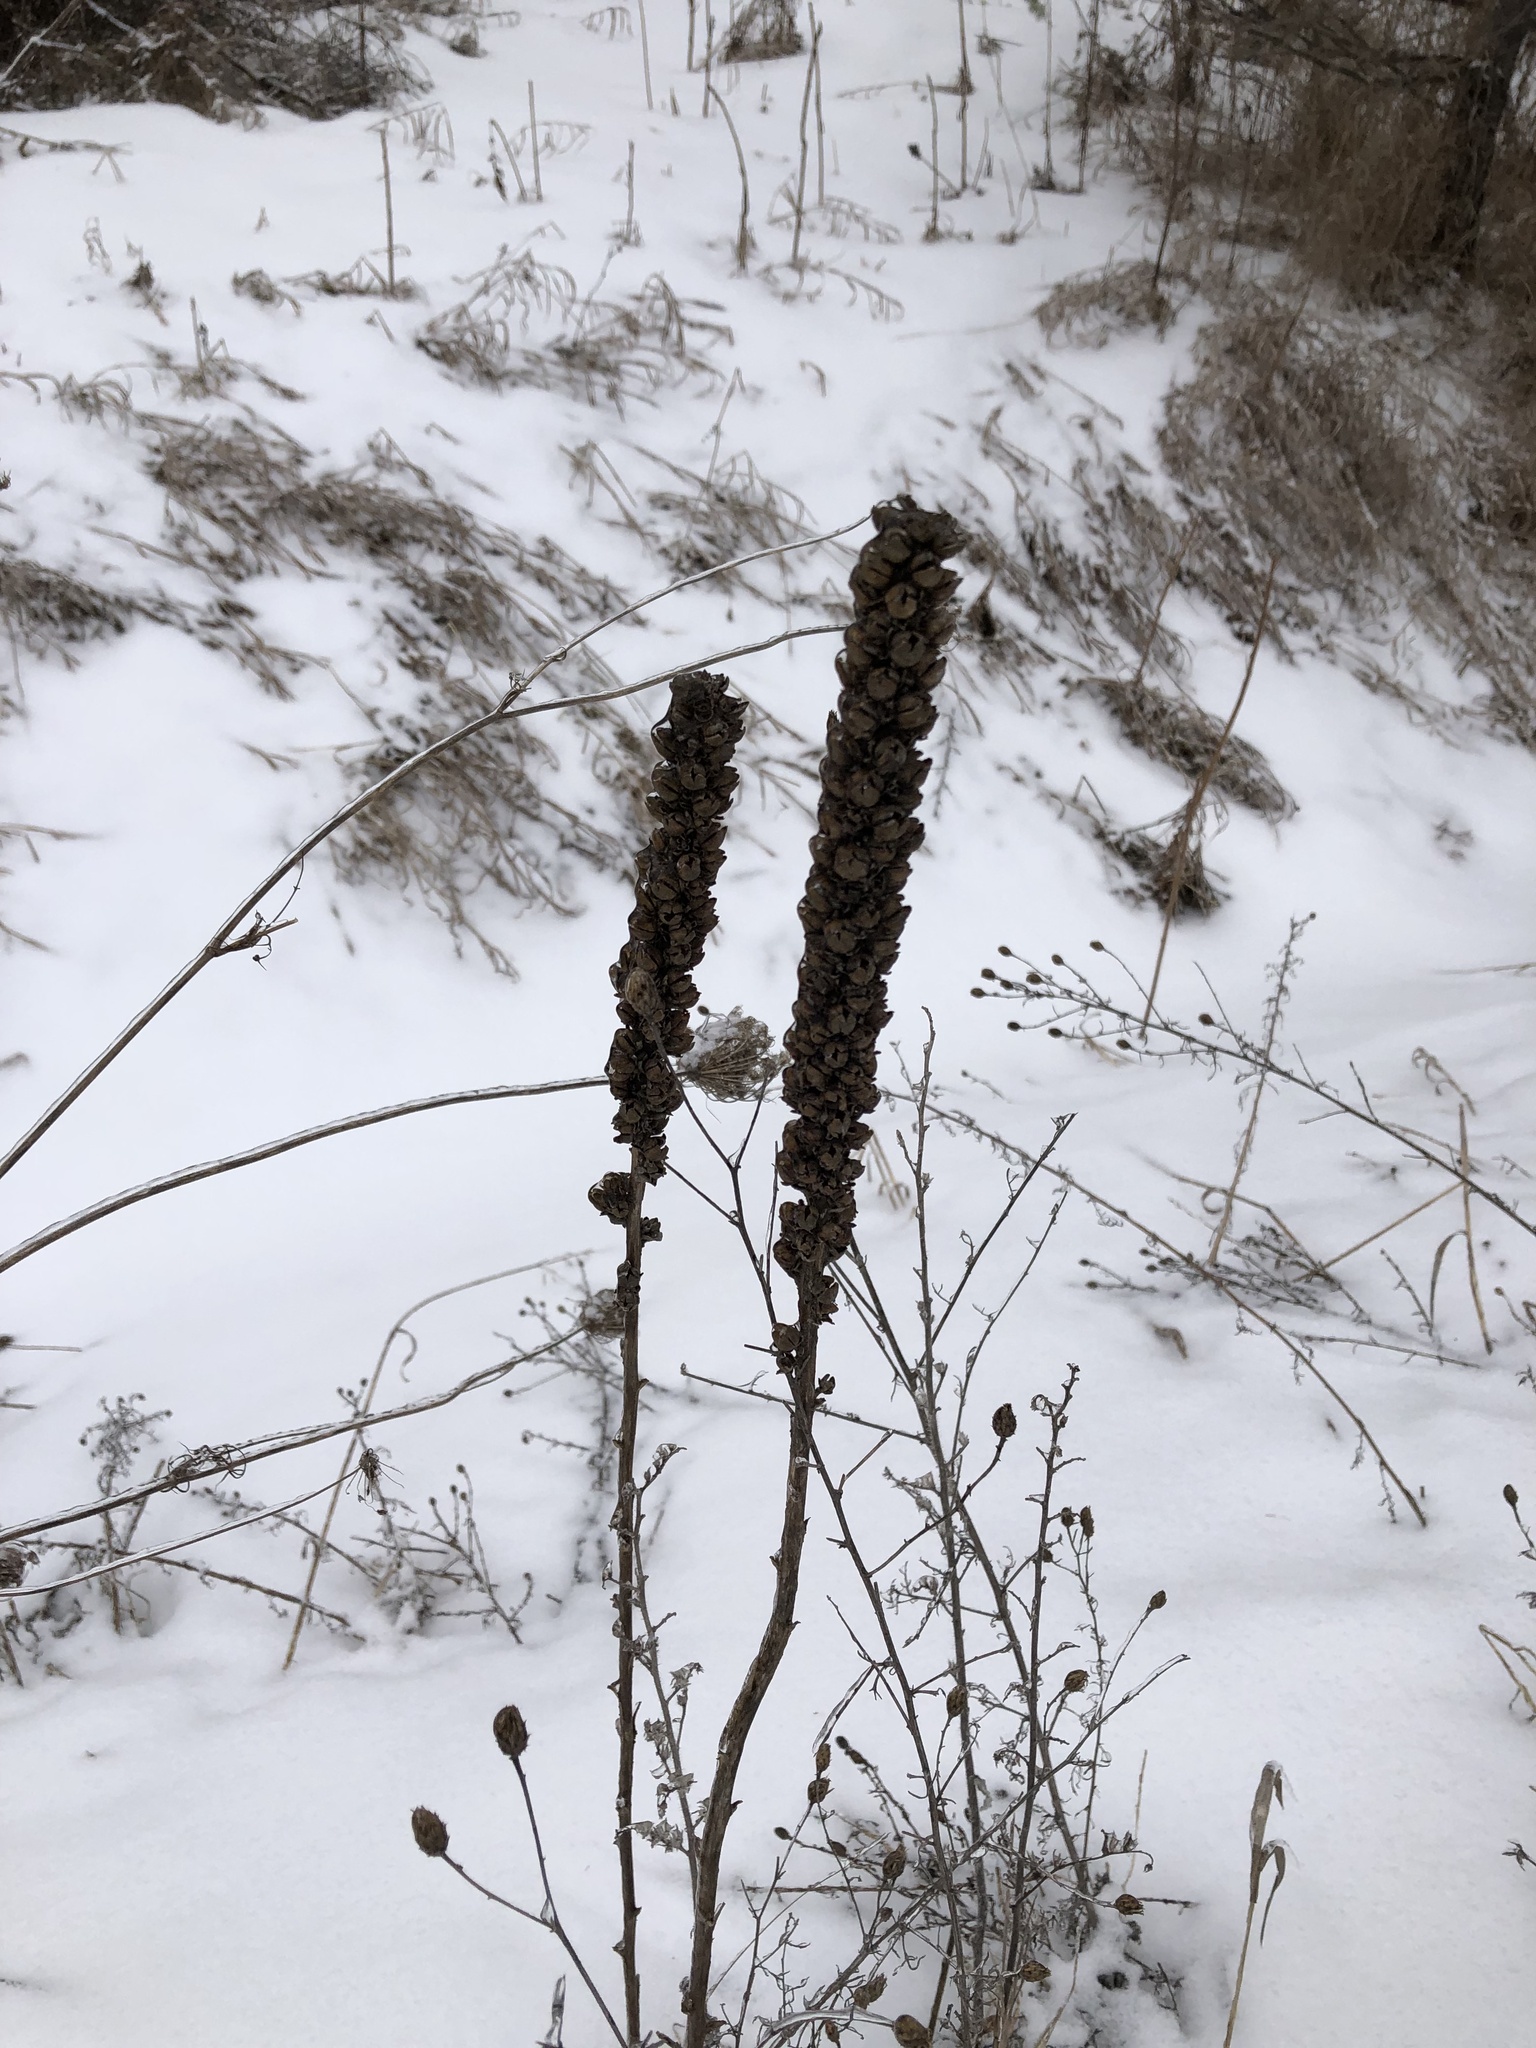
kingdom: Plantae
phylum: Tracheophyta
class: Magnoliopsida
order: Lamiales
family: Scrophulariaceae
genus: Verbascum
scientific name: Verbascum thapsus
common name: Common mullein
